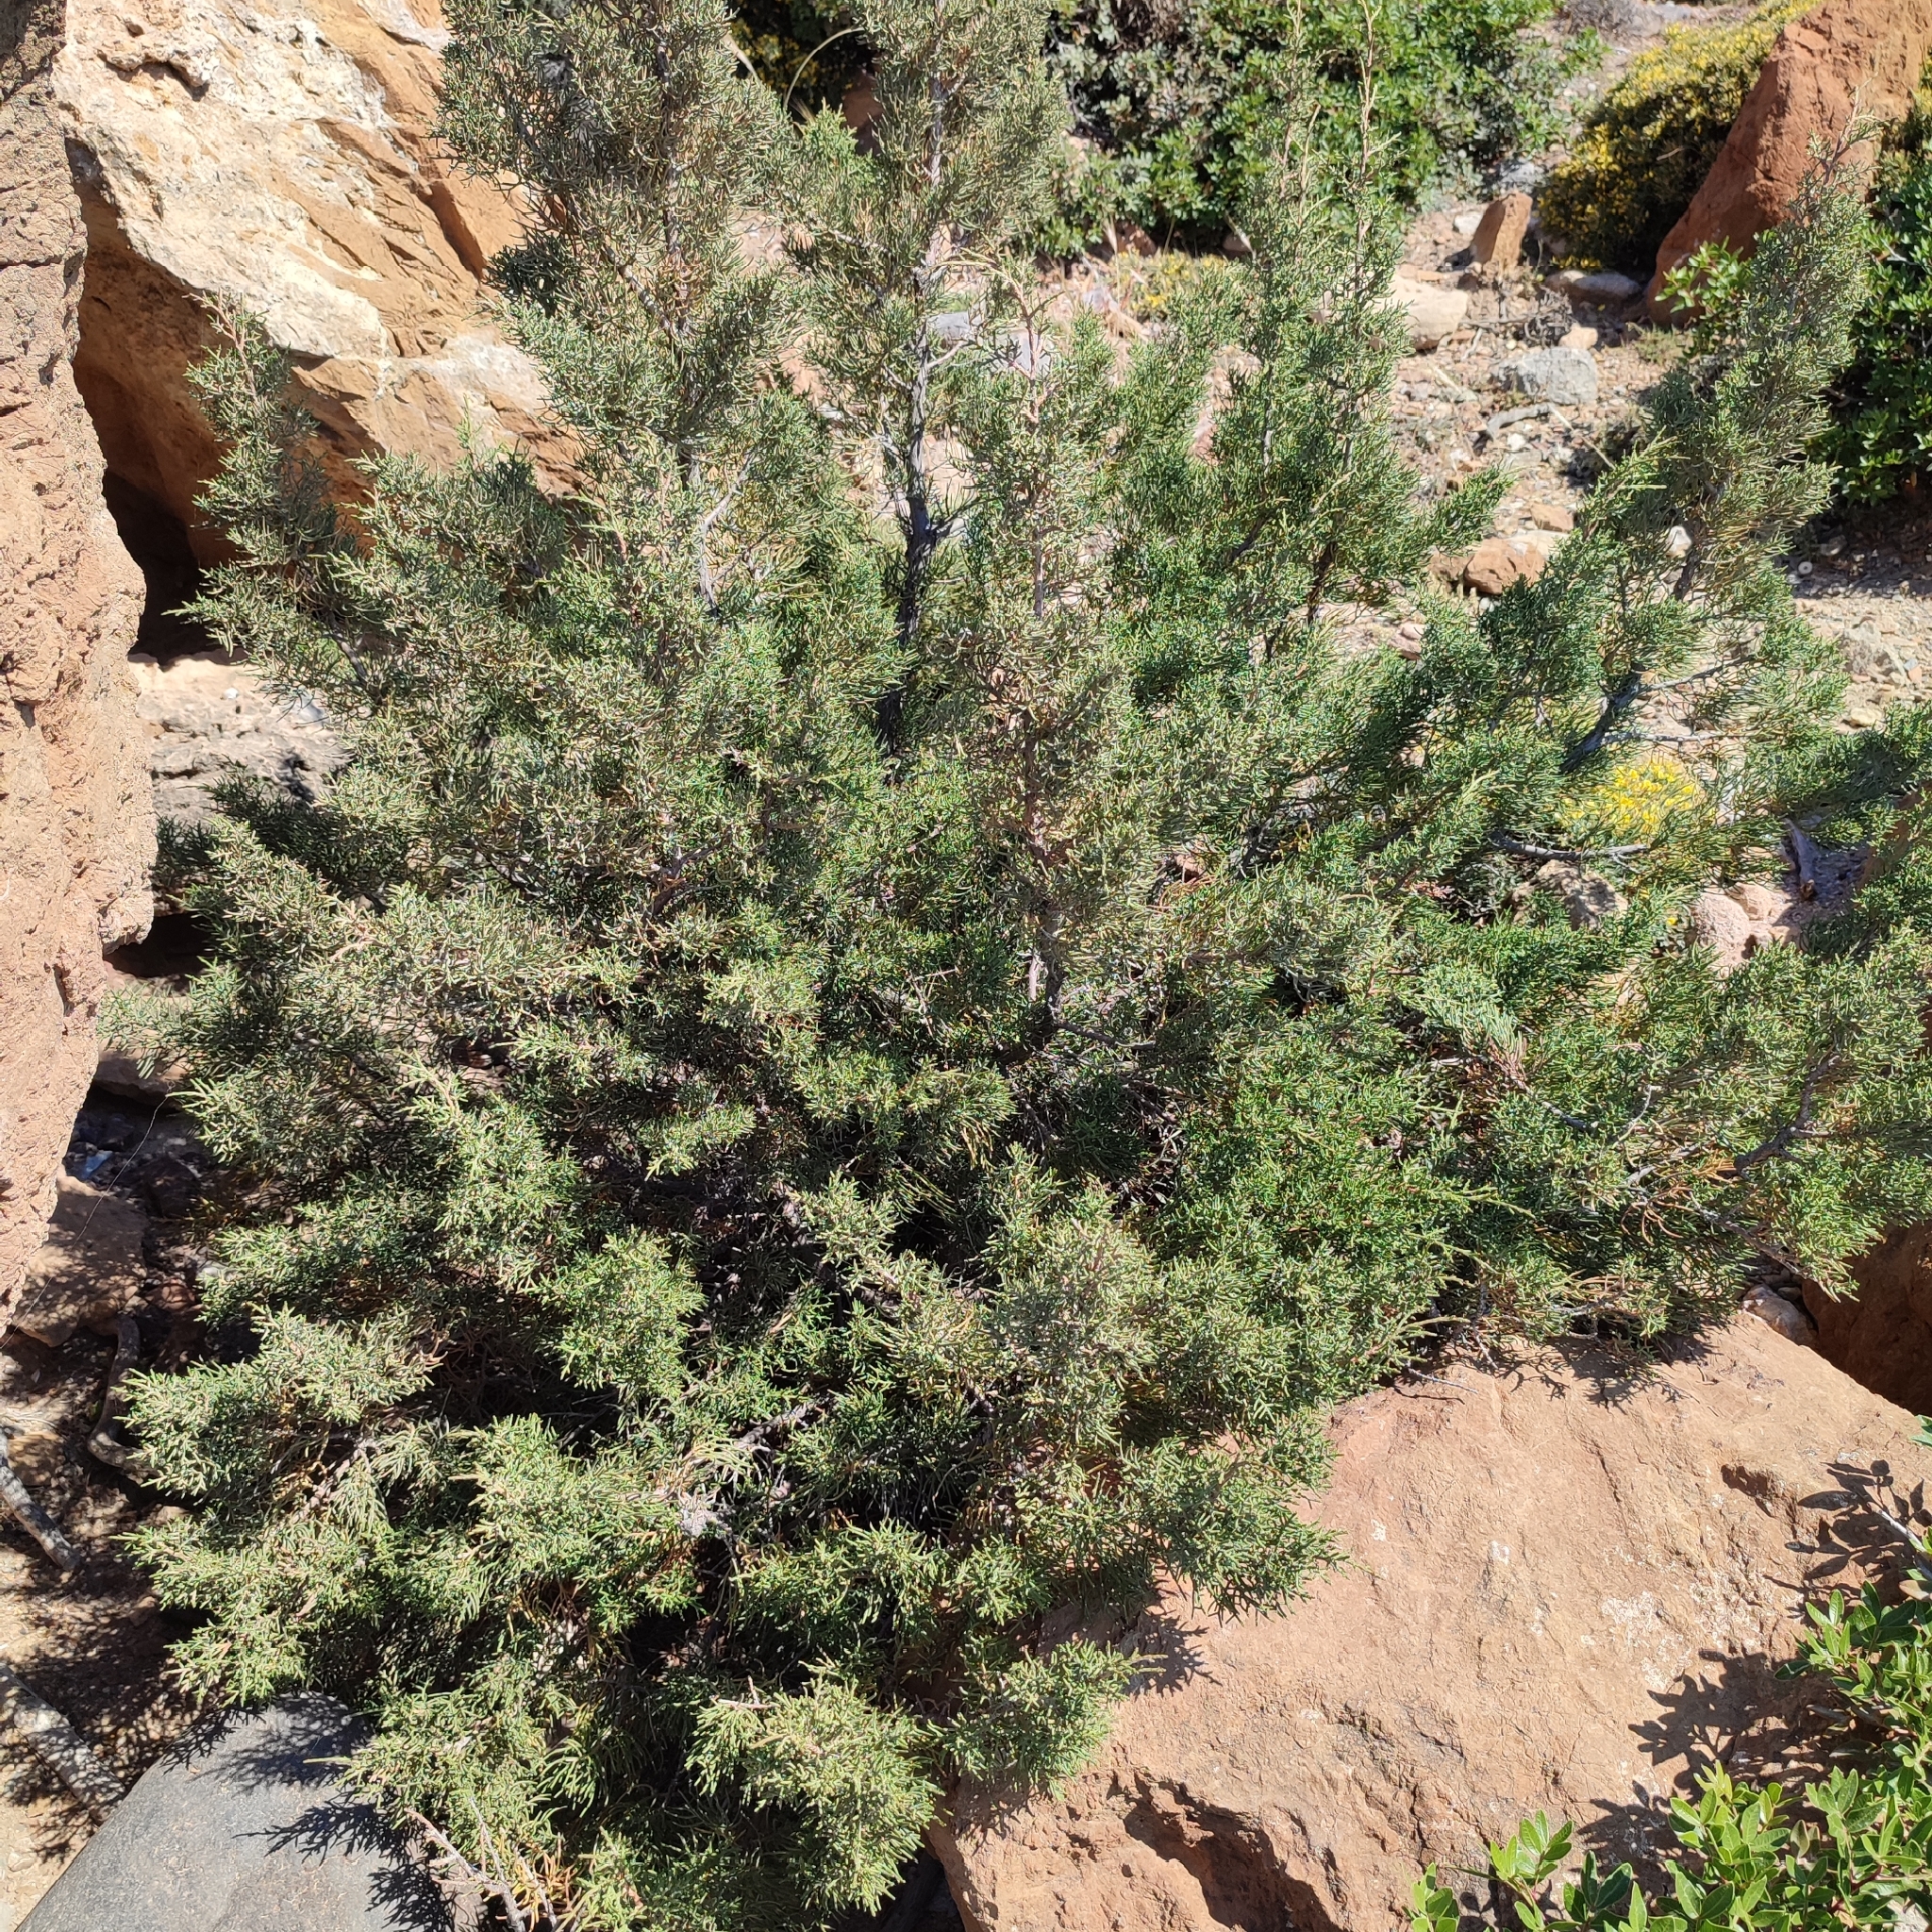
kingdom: Plantae
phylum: Tracheophyta
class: Pinopsida
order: Pinales
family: Cupressaceae
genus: Juniperus
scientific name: Juniperus phoenicea
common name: Phoenician juniper
